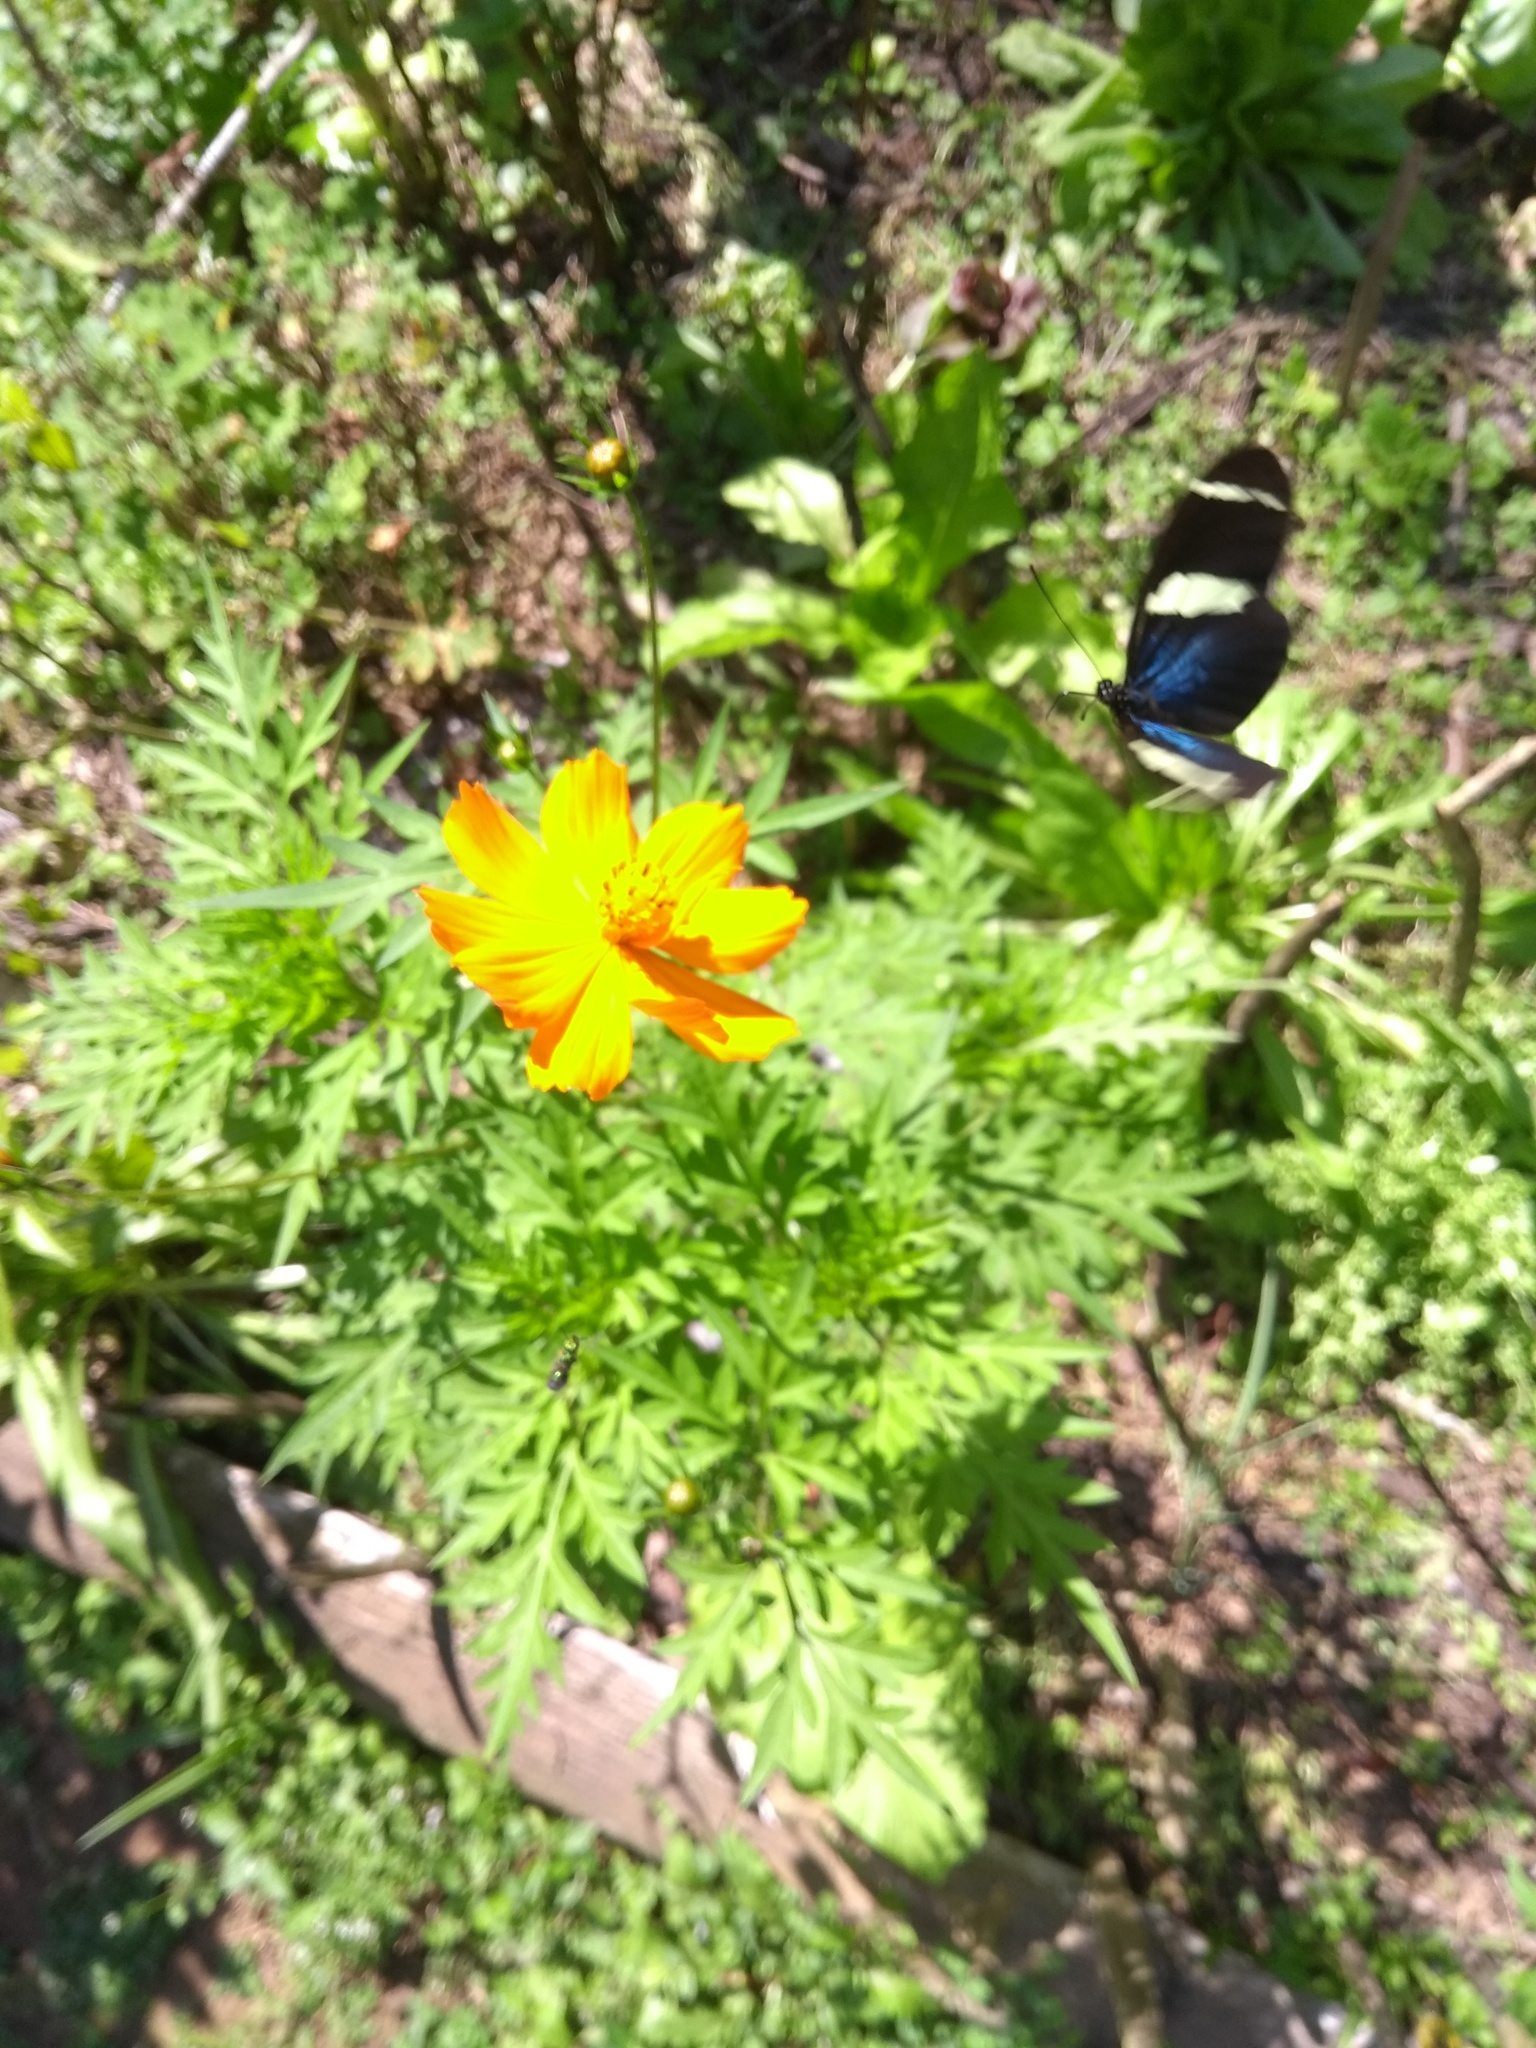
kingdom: Animalia
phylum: Arthropoda
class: Insecta
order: Lepidoptera
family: Nymphalidae
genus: Heliconius
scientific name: Heliconius sara
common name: Sara longwing
